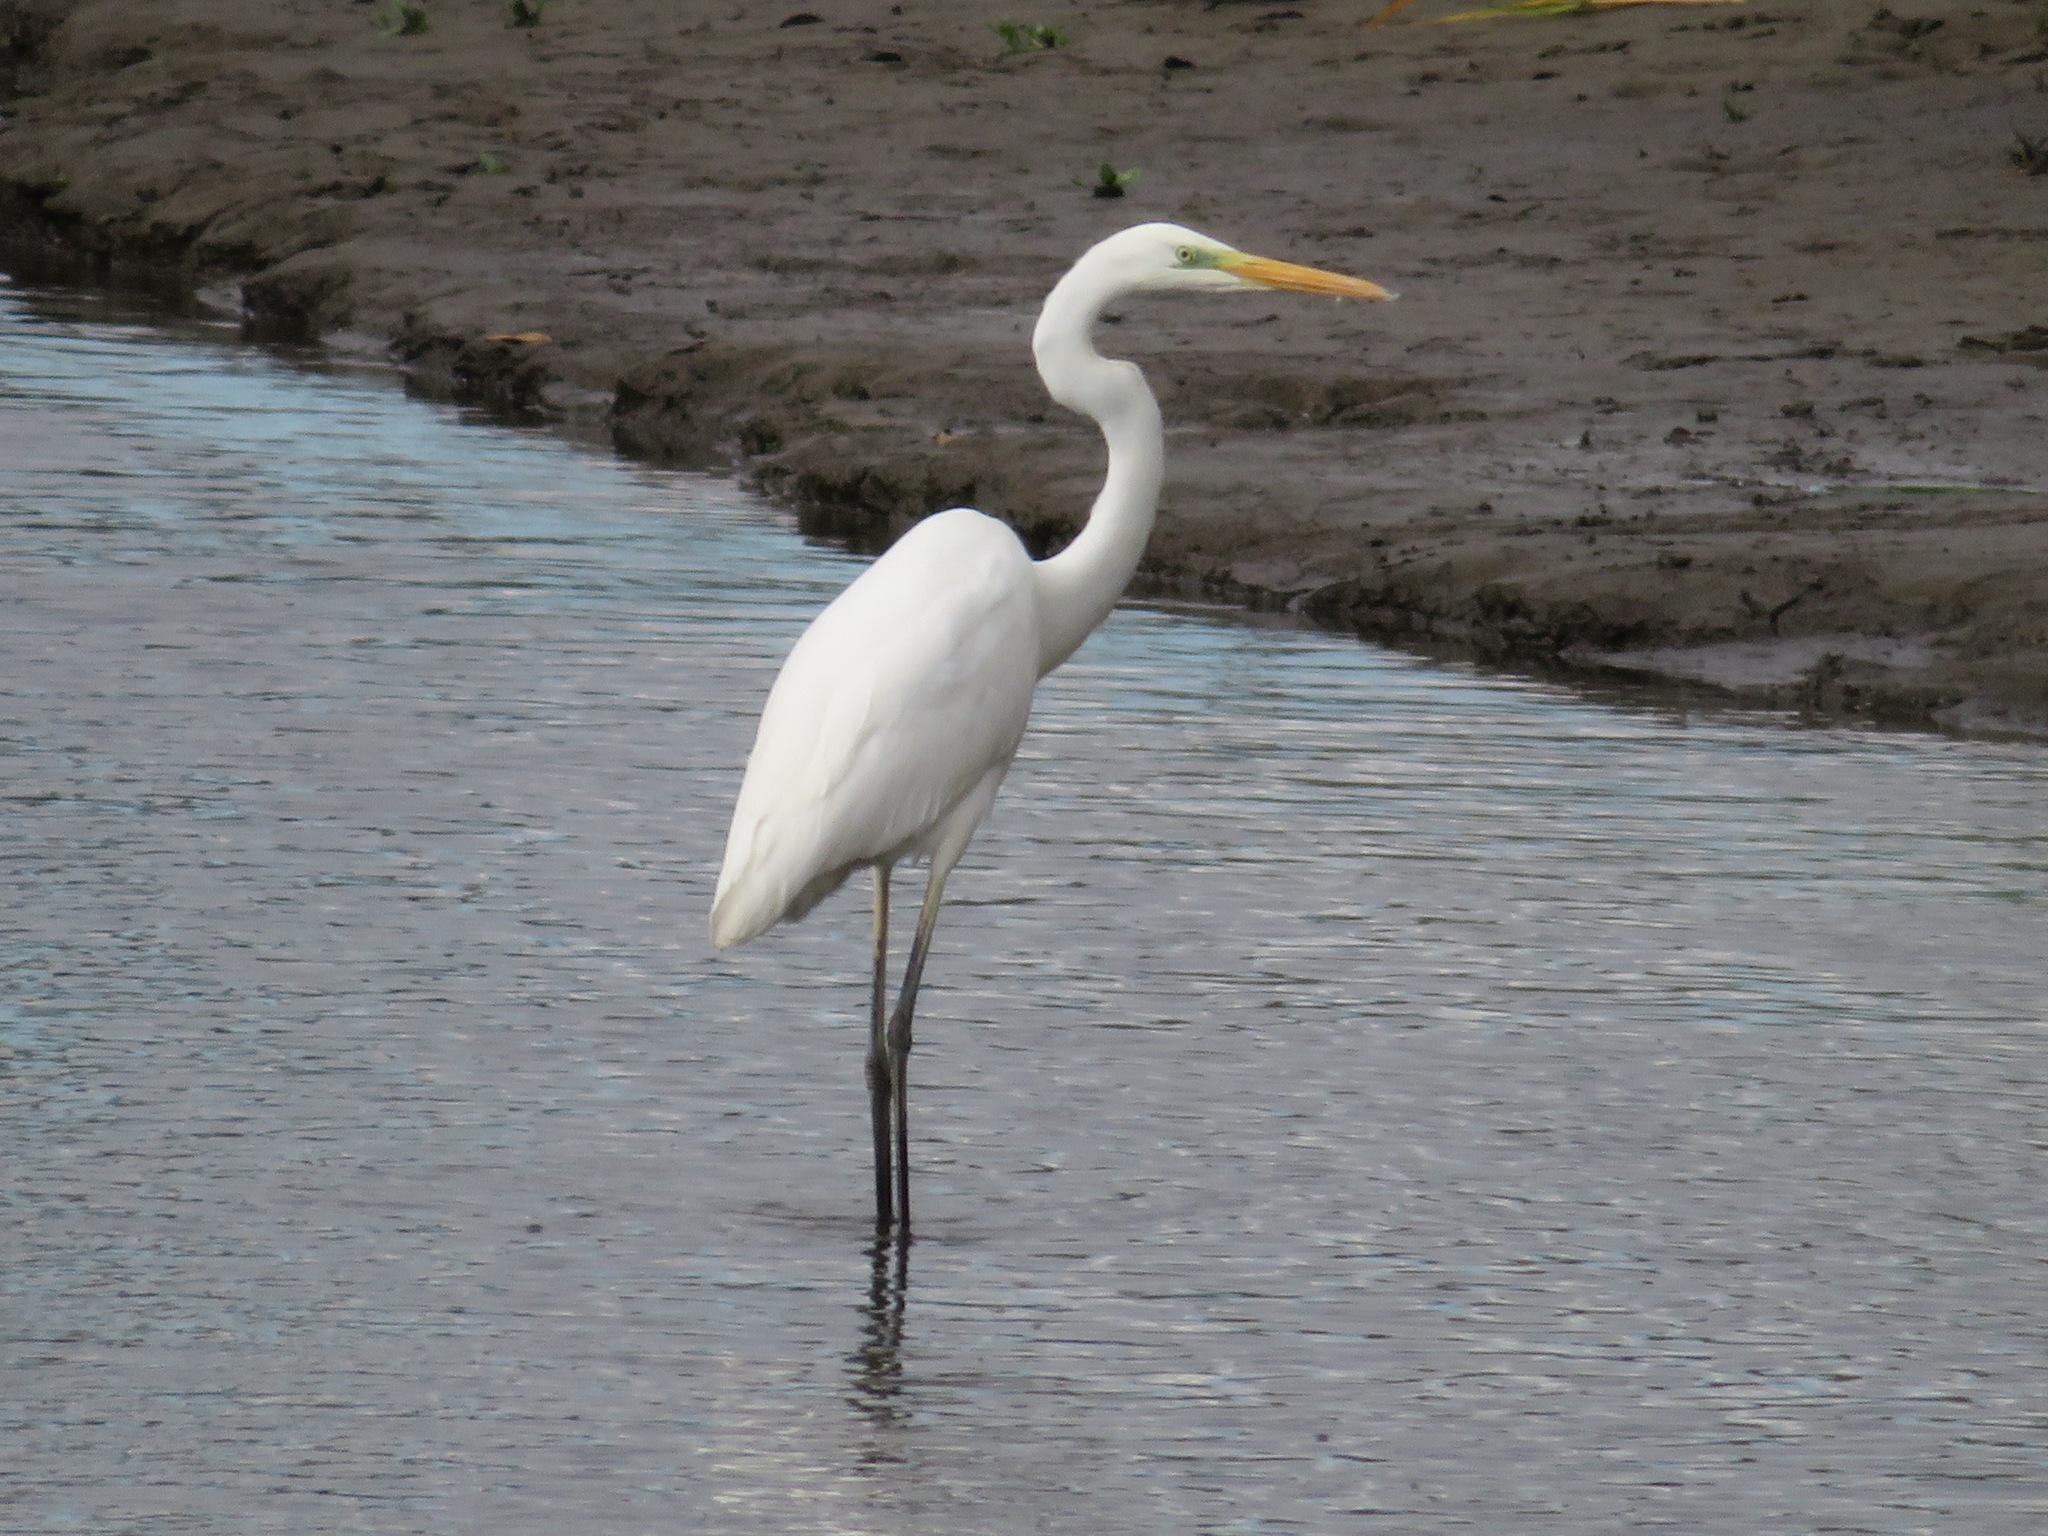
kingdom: Animalia
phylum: Chordata
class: Aves
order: Pelecaniformes
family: Ardeidae
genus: Ardea
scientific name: Ardea alba
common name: Great egret
